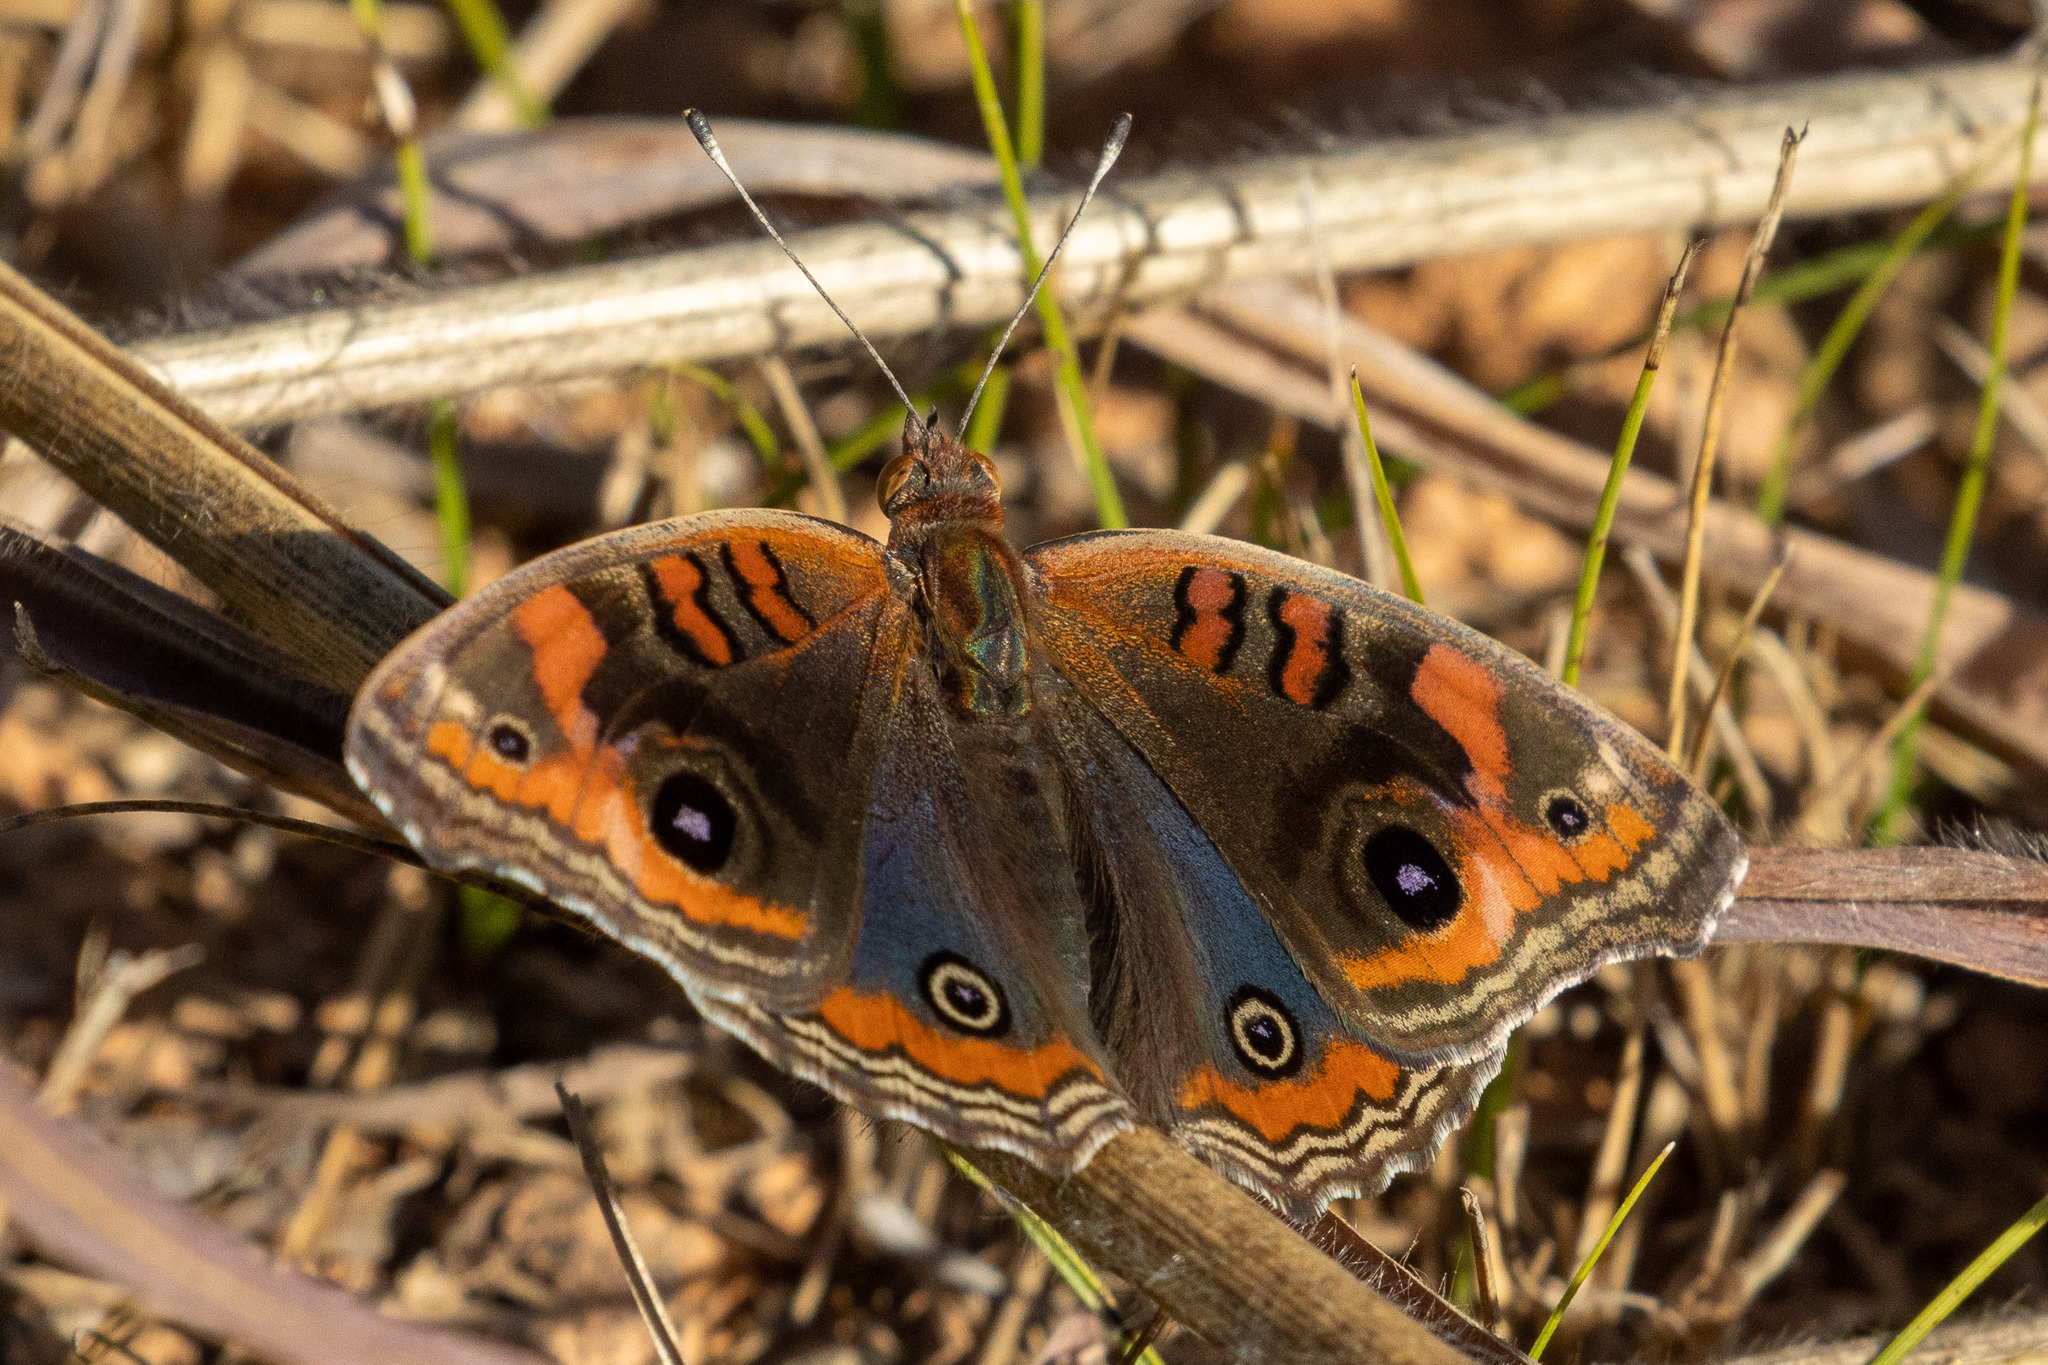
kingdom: Animalia
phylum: Arthropoda
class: Insecta
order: Lepidoptera
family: Nymphalidae
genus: Junonia
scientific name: Junonia evarete
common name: Black mangrove buckeye
